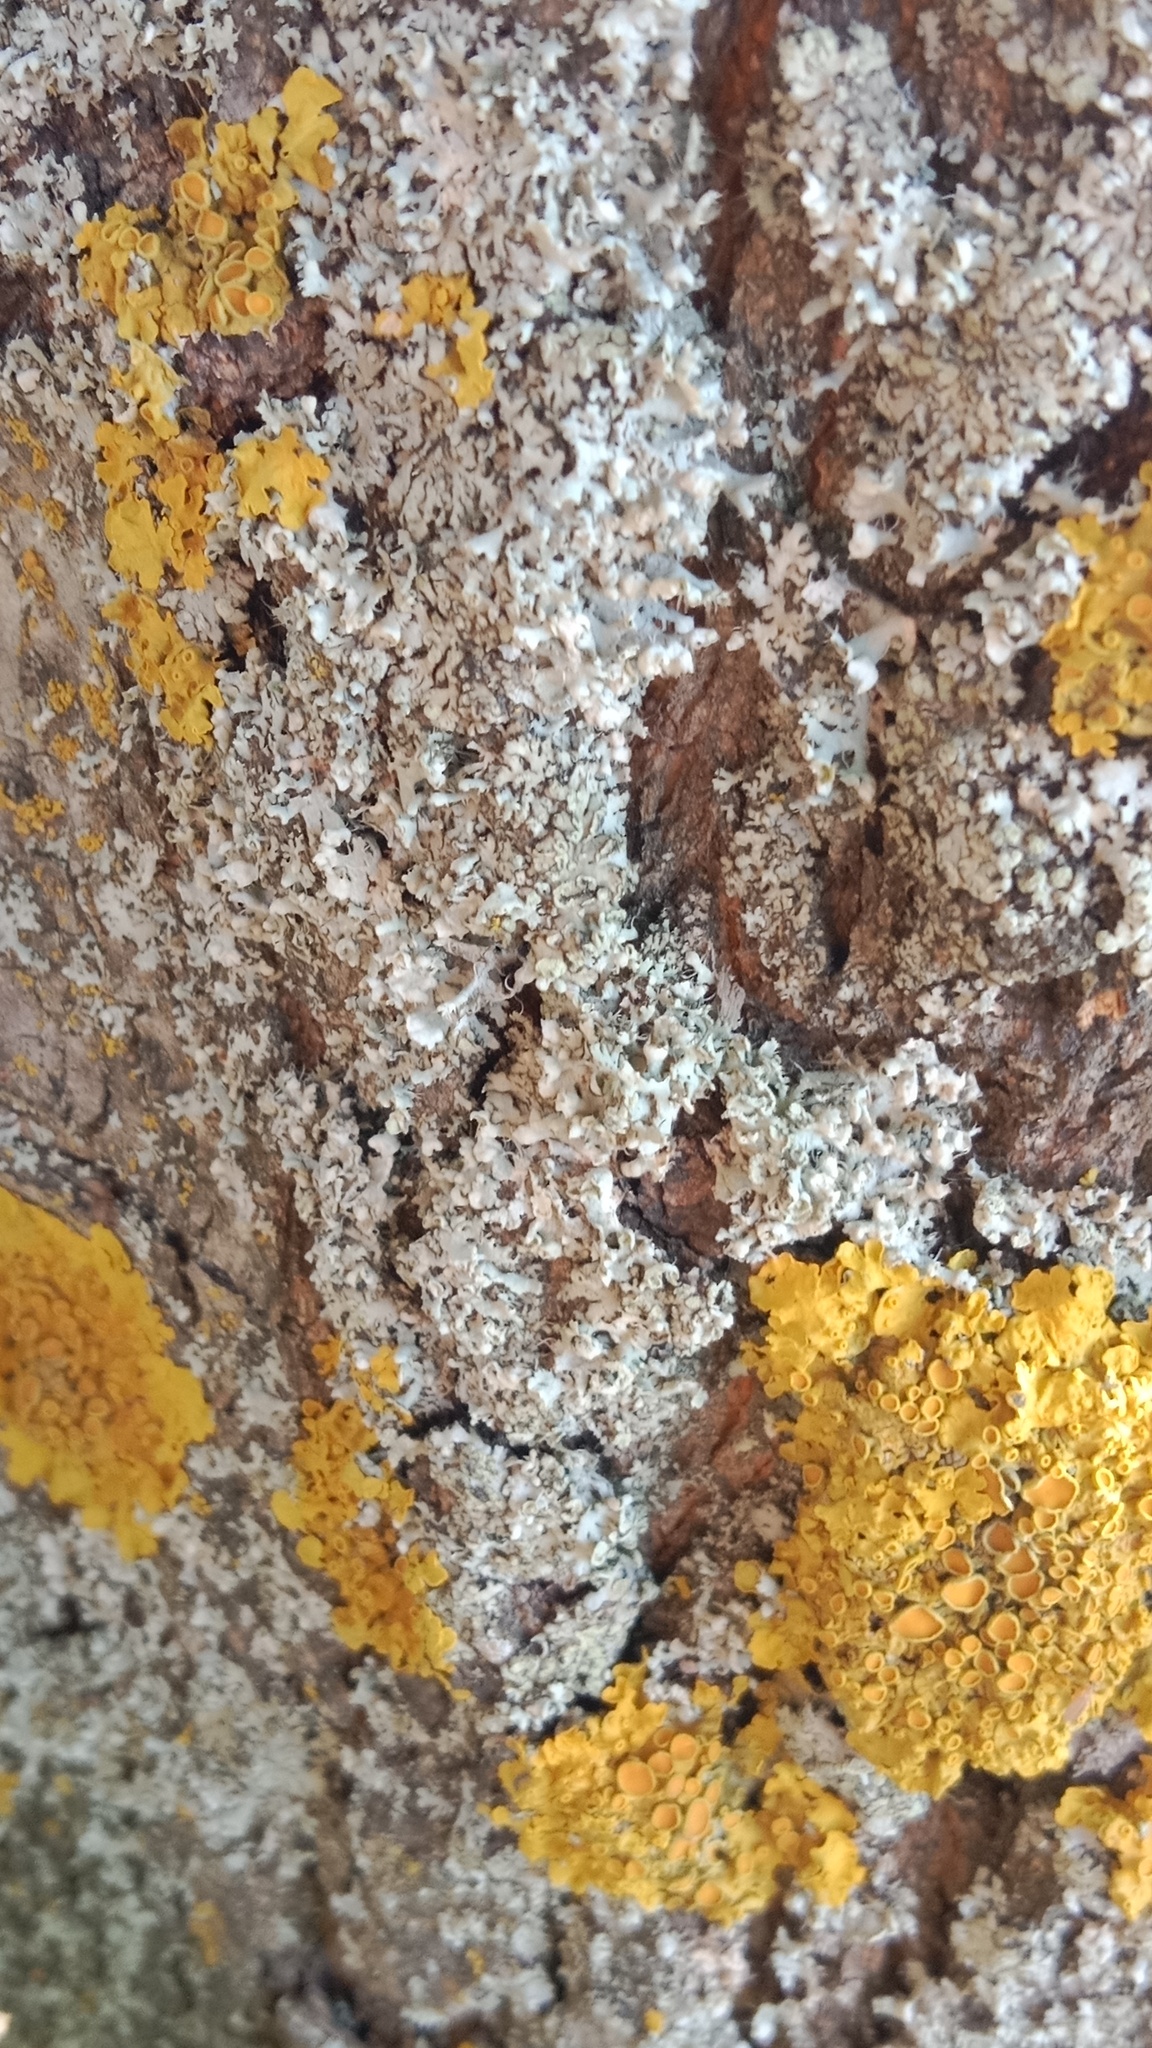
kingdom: Fungi
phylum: Ascomycota
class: Lecanoromycetes
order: Caliciales
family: Physciaceae
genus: Physcia
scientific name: Physcia adscendens
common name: Hooded rosette lichen
